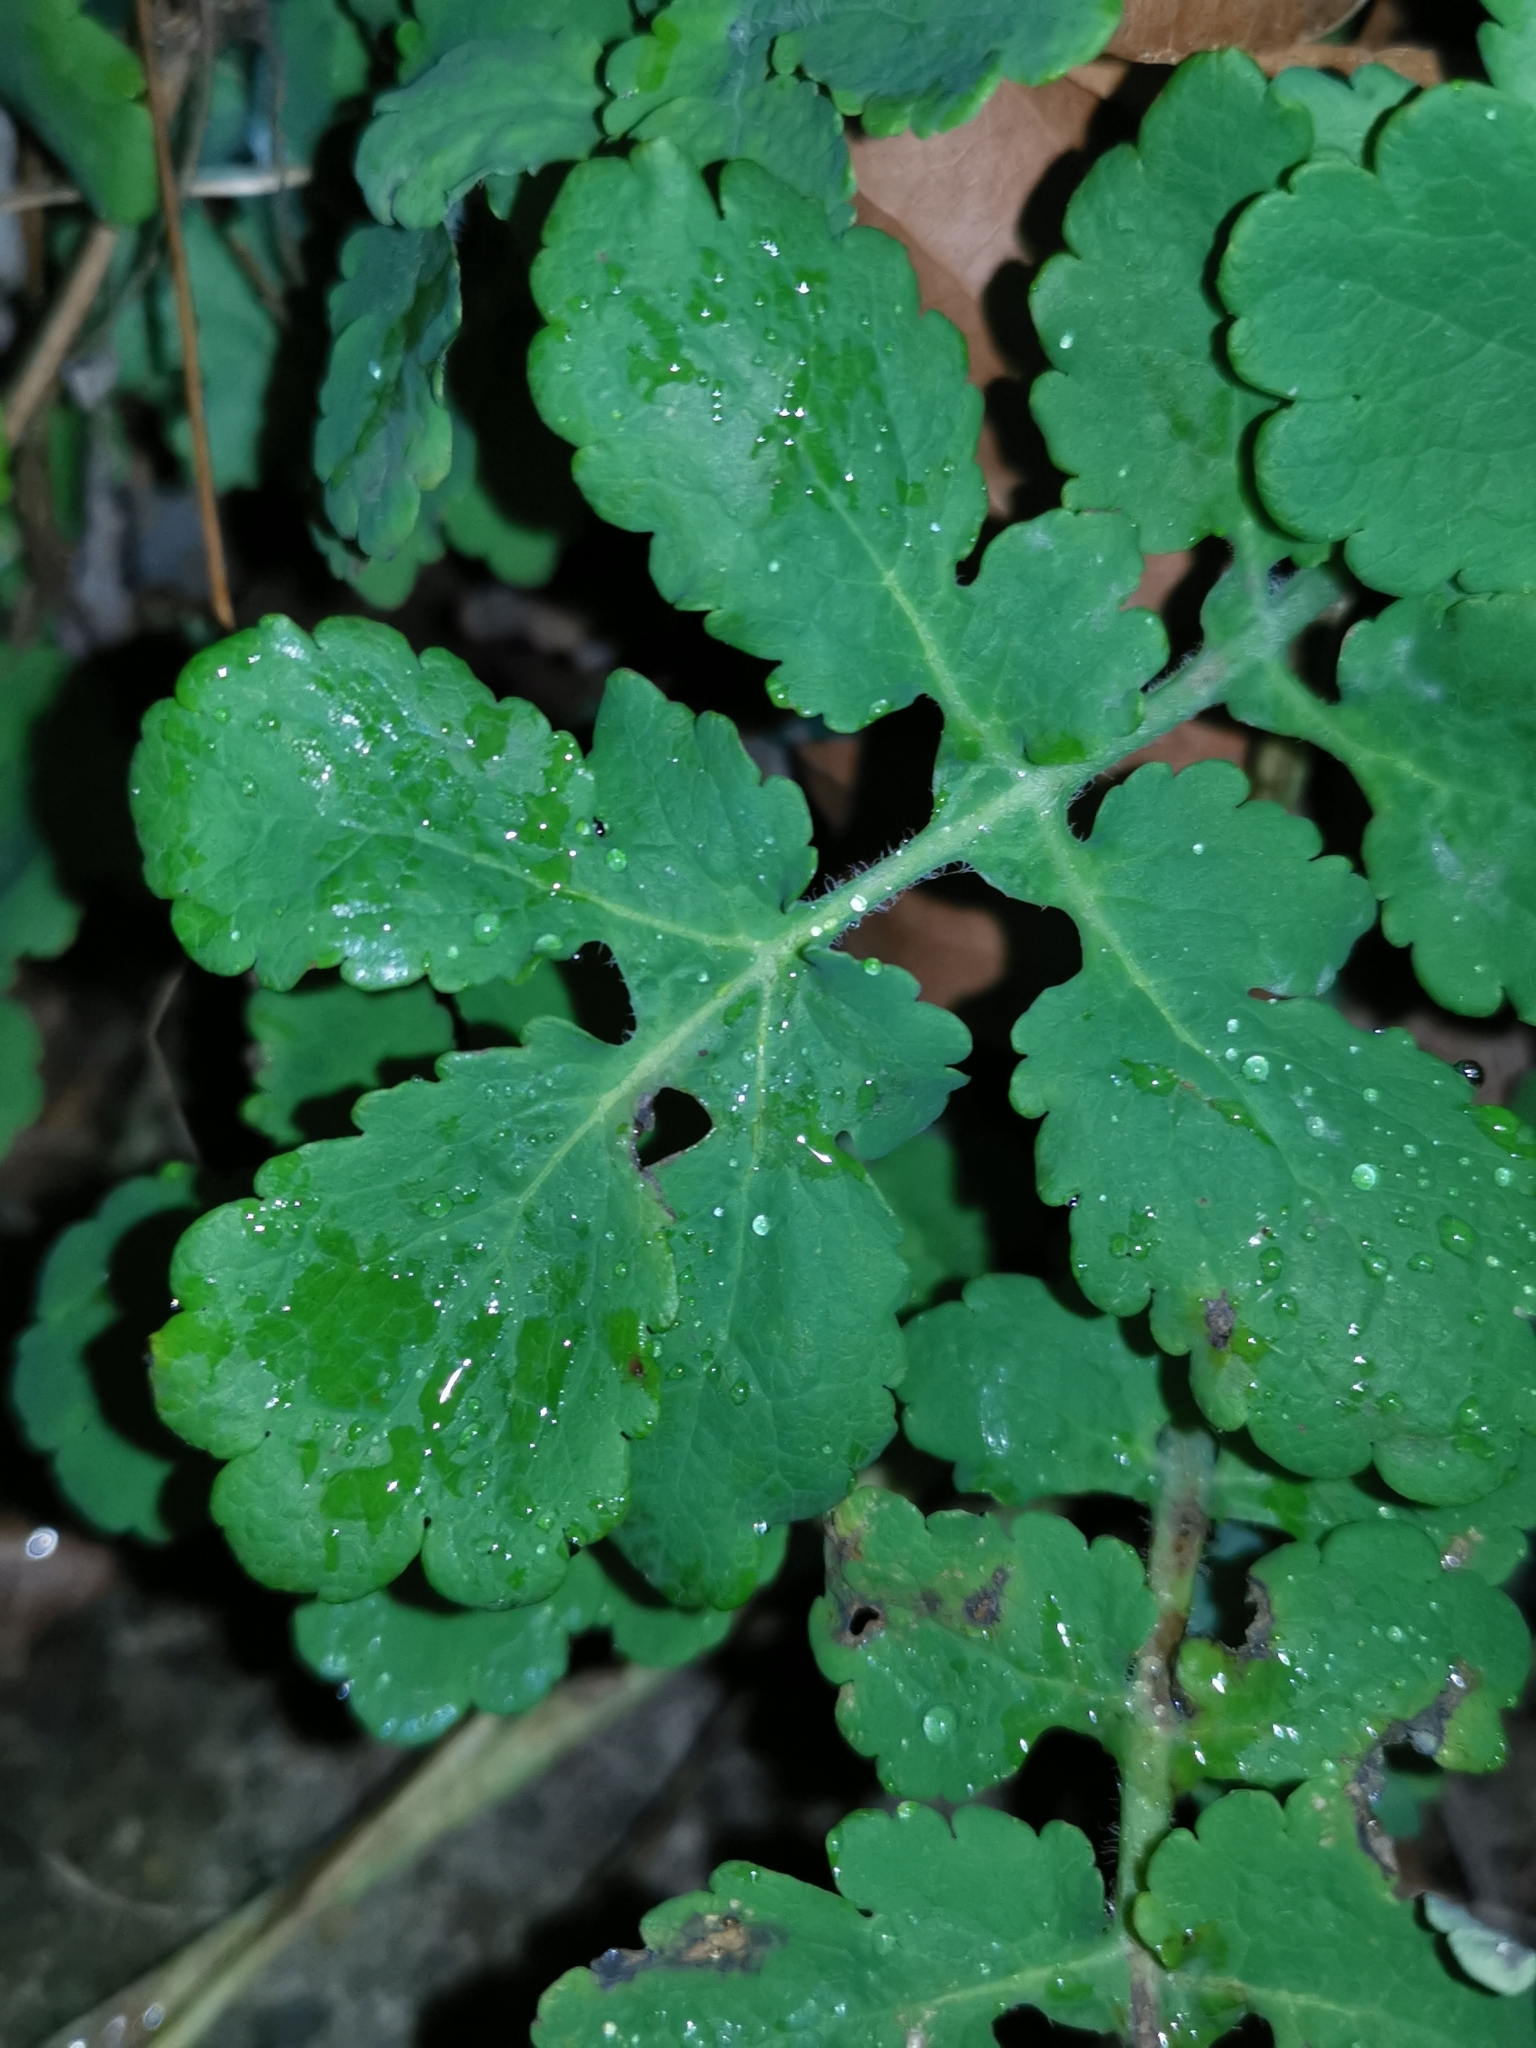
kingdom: Plantae
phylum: Tracheophyta
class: Magnoliopsida
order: Ranunculales
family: Papaveraceae
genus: Chelidonium
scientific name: Chelidonium majus
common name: Greater celandine
